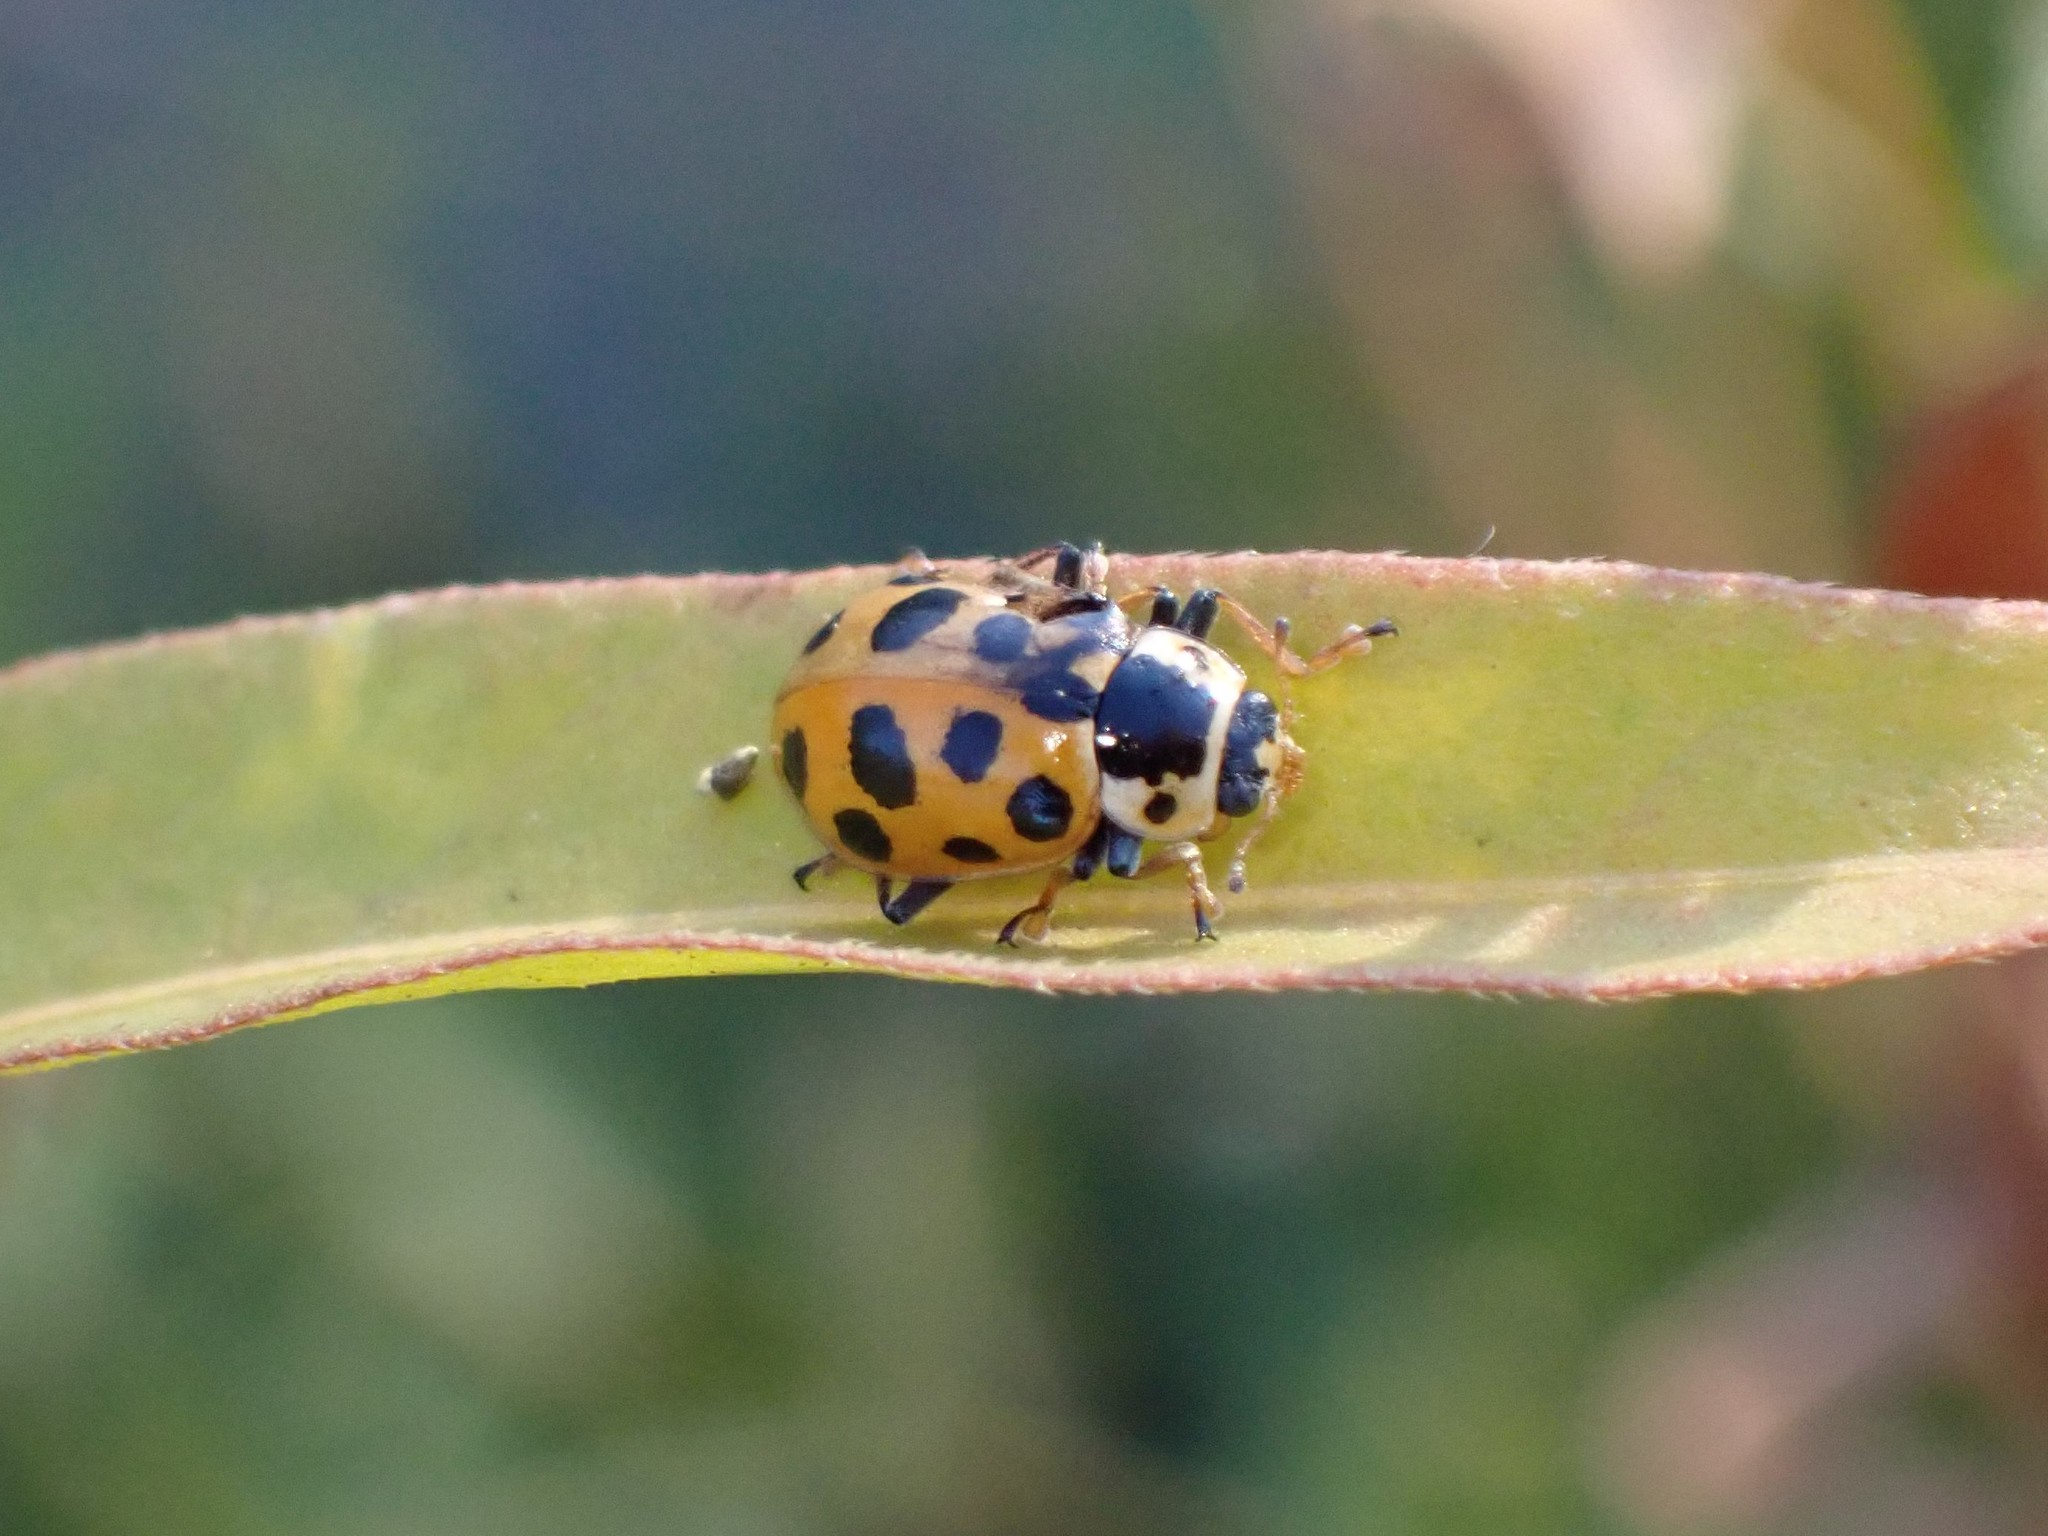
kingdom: Animalia
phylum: Arthropoda
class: Insecta
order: Coleoptera
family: Coccinellidae
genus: Hippodamia
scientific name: Hippodamia tredecimpunctata
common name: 13-spot ladybird
